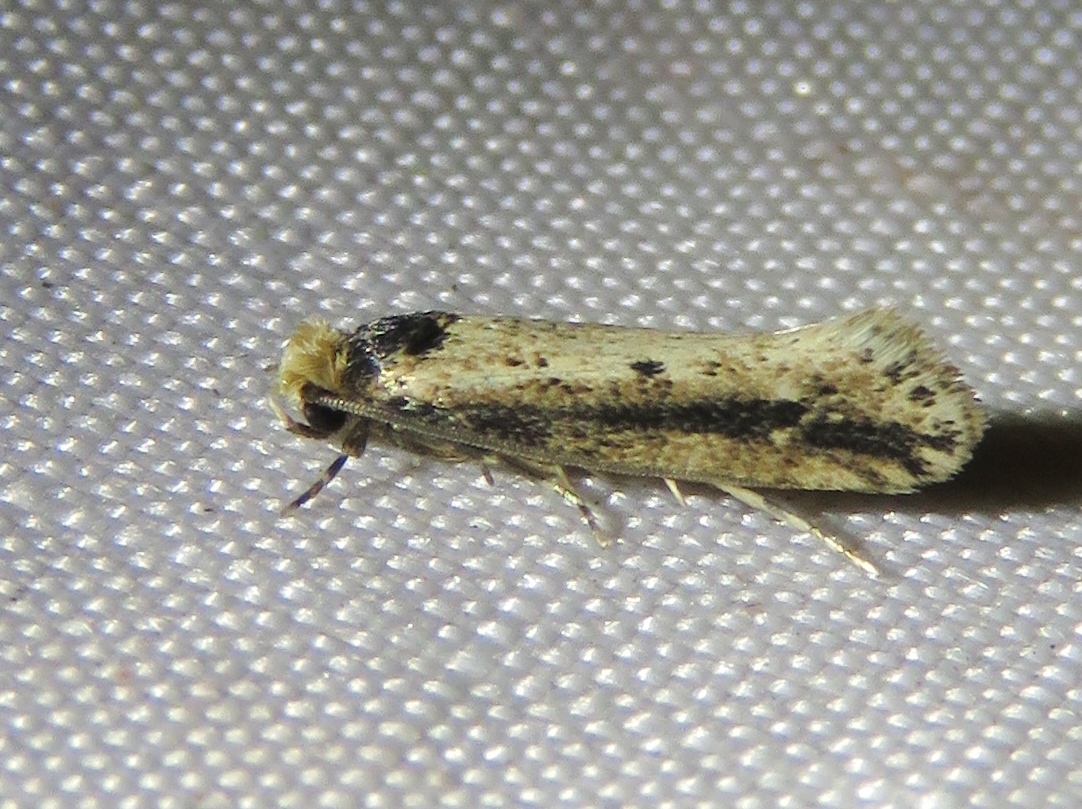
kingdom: Animalia
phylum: Arthropoda
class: Insecta
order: Lepidoptera
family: Tineidae
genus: Tinea
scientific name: Tinea apicimaculella
